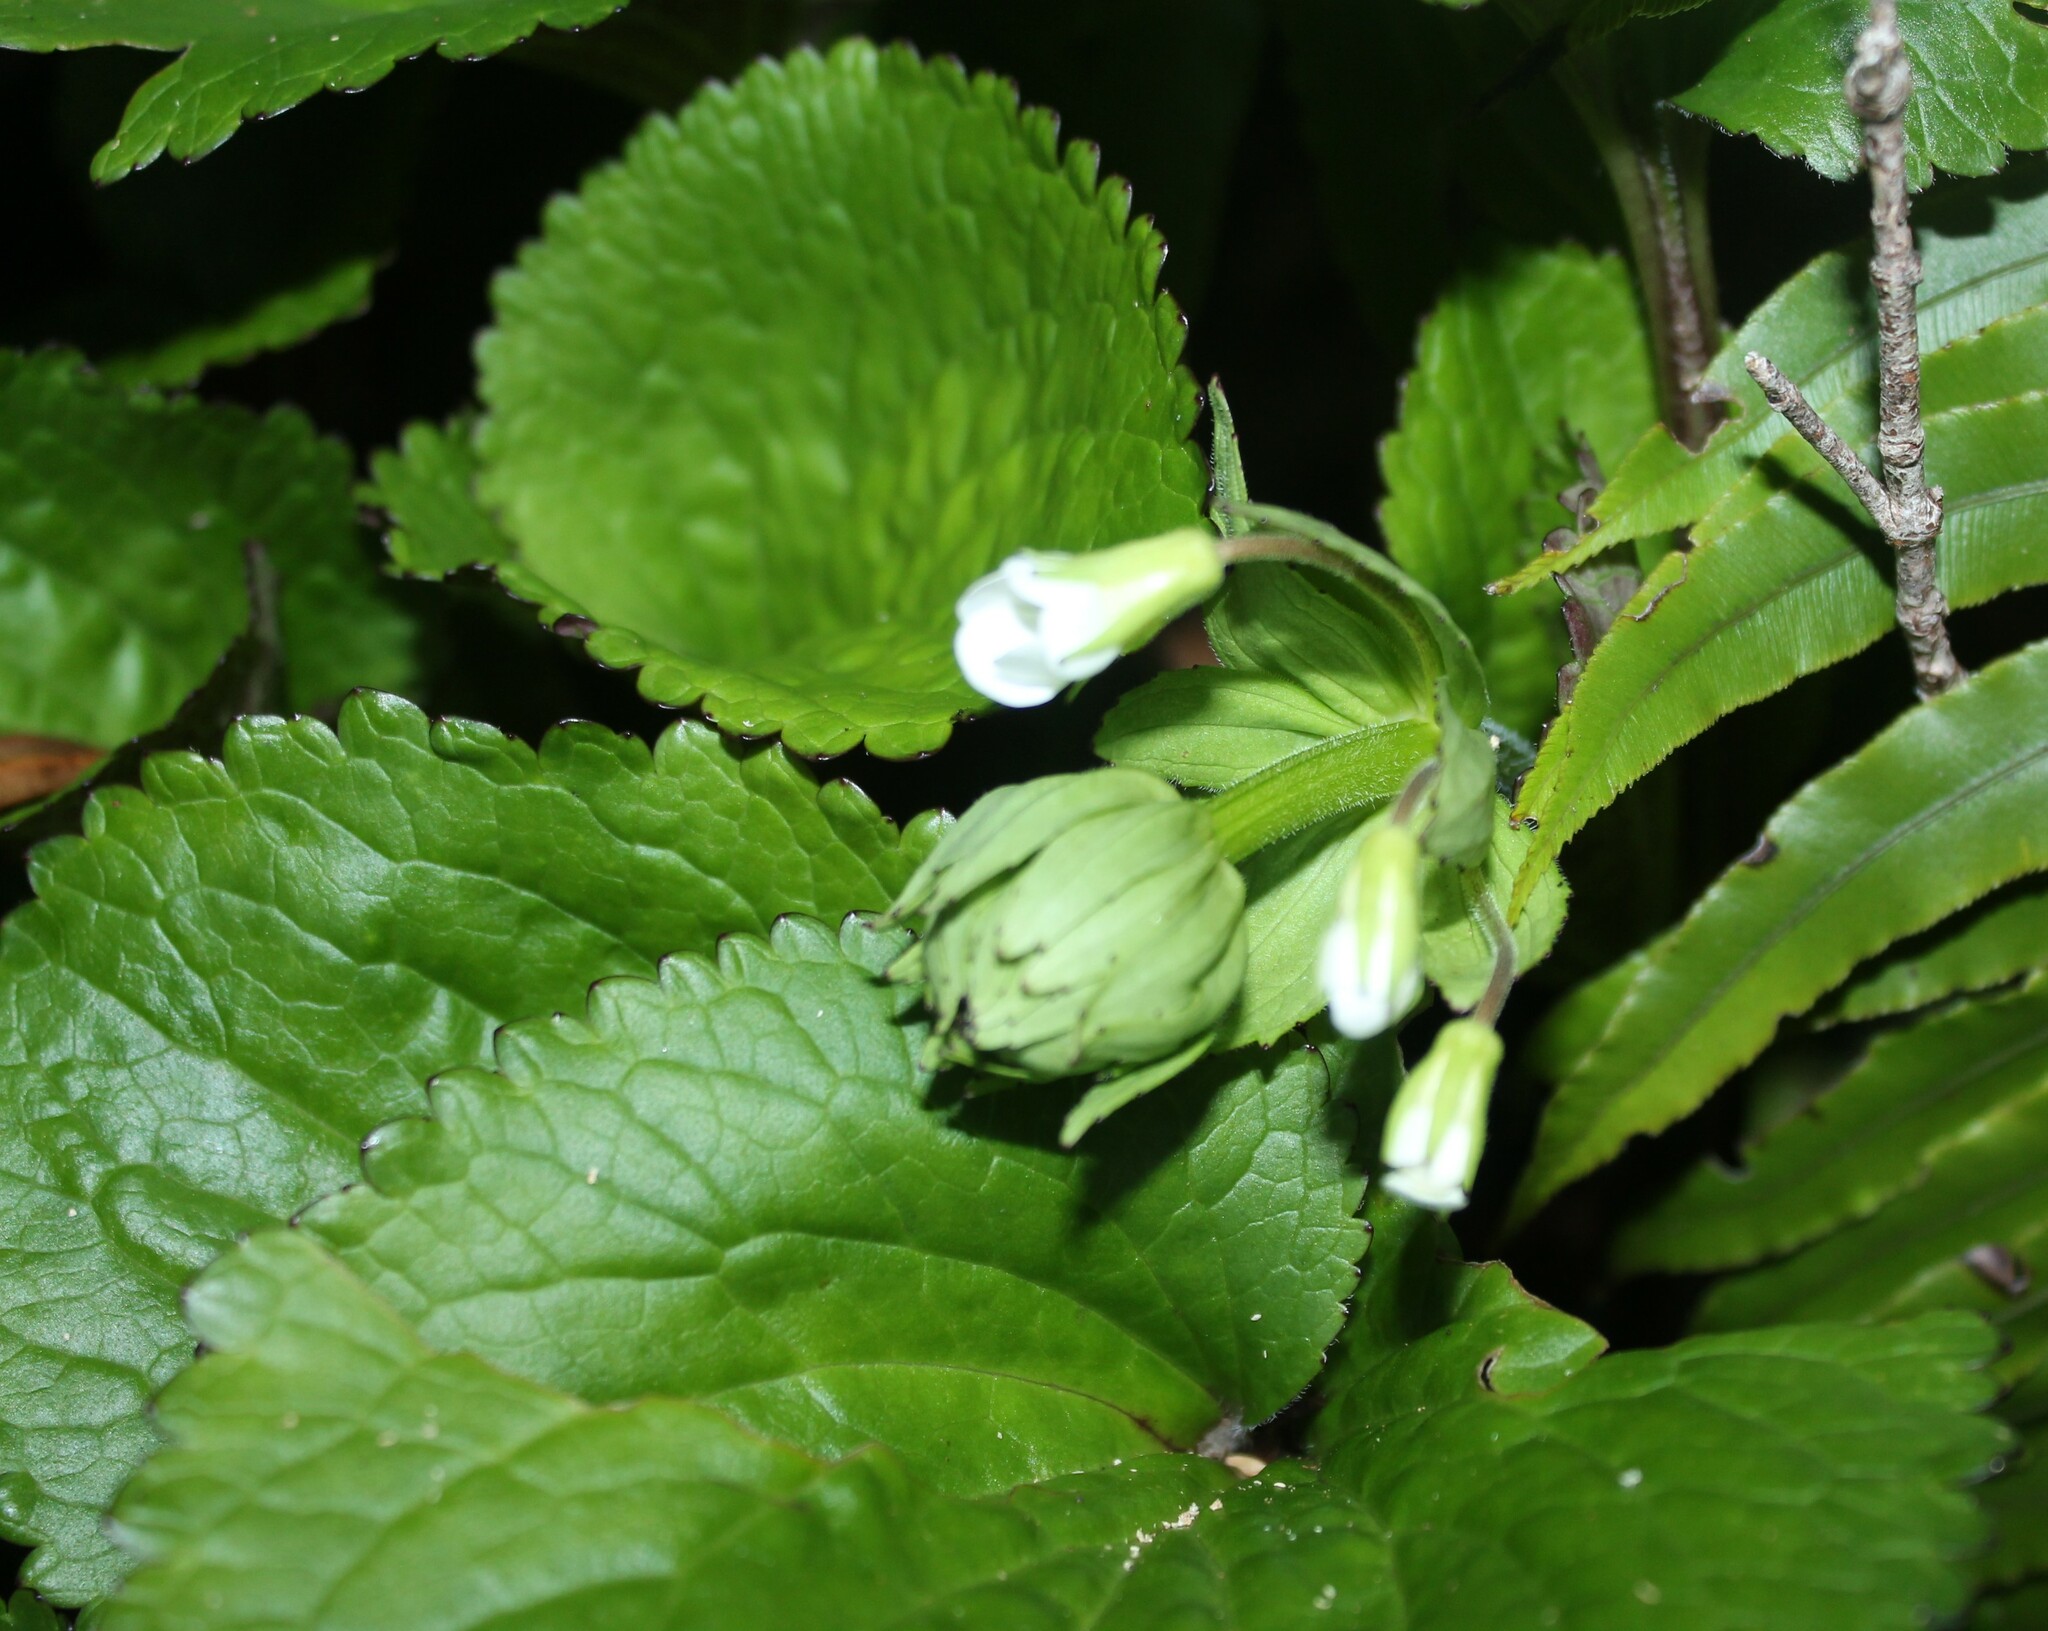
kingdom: Plantae
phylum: Tracheophyta
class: Magnoliopsida
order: Lamiales
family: Plantaginaceae
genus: Ourisia
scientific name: Ourisia macrophylla
